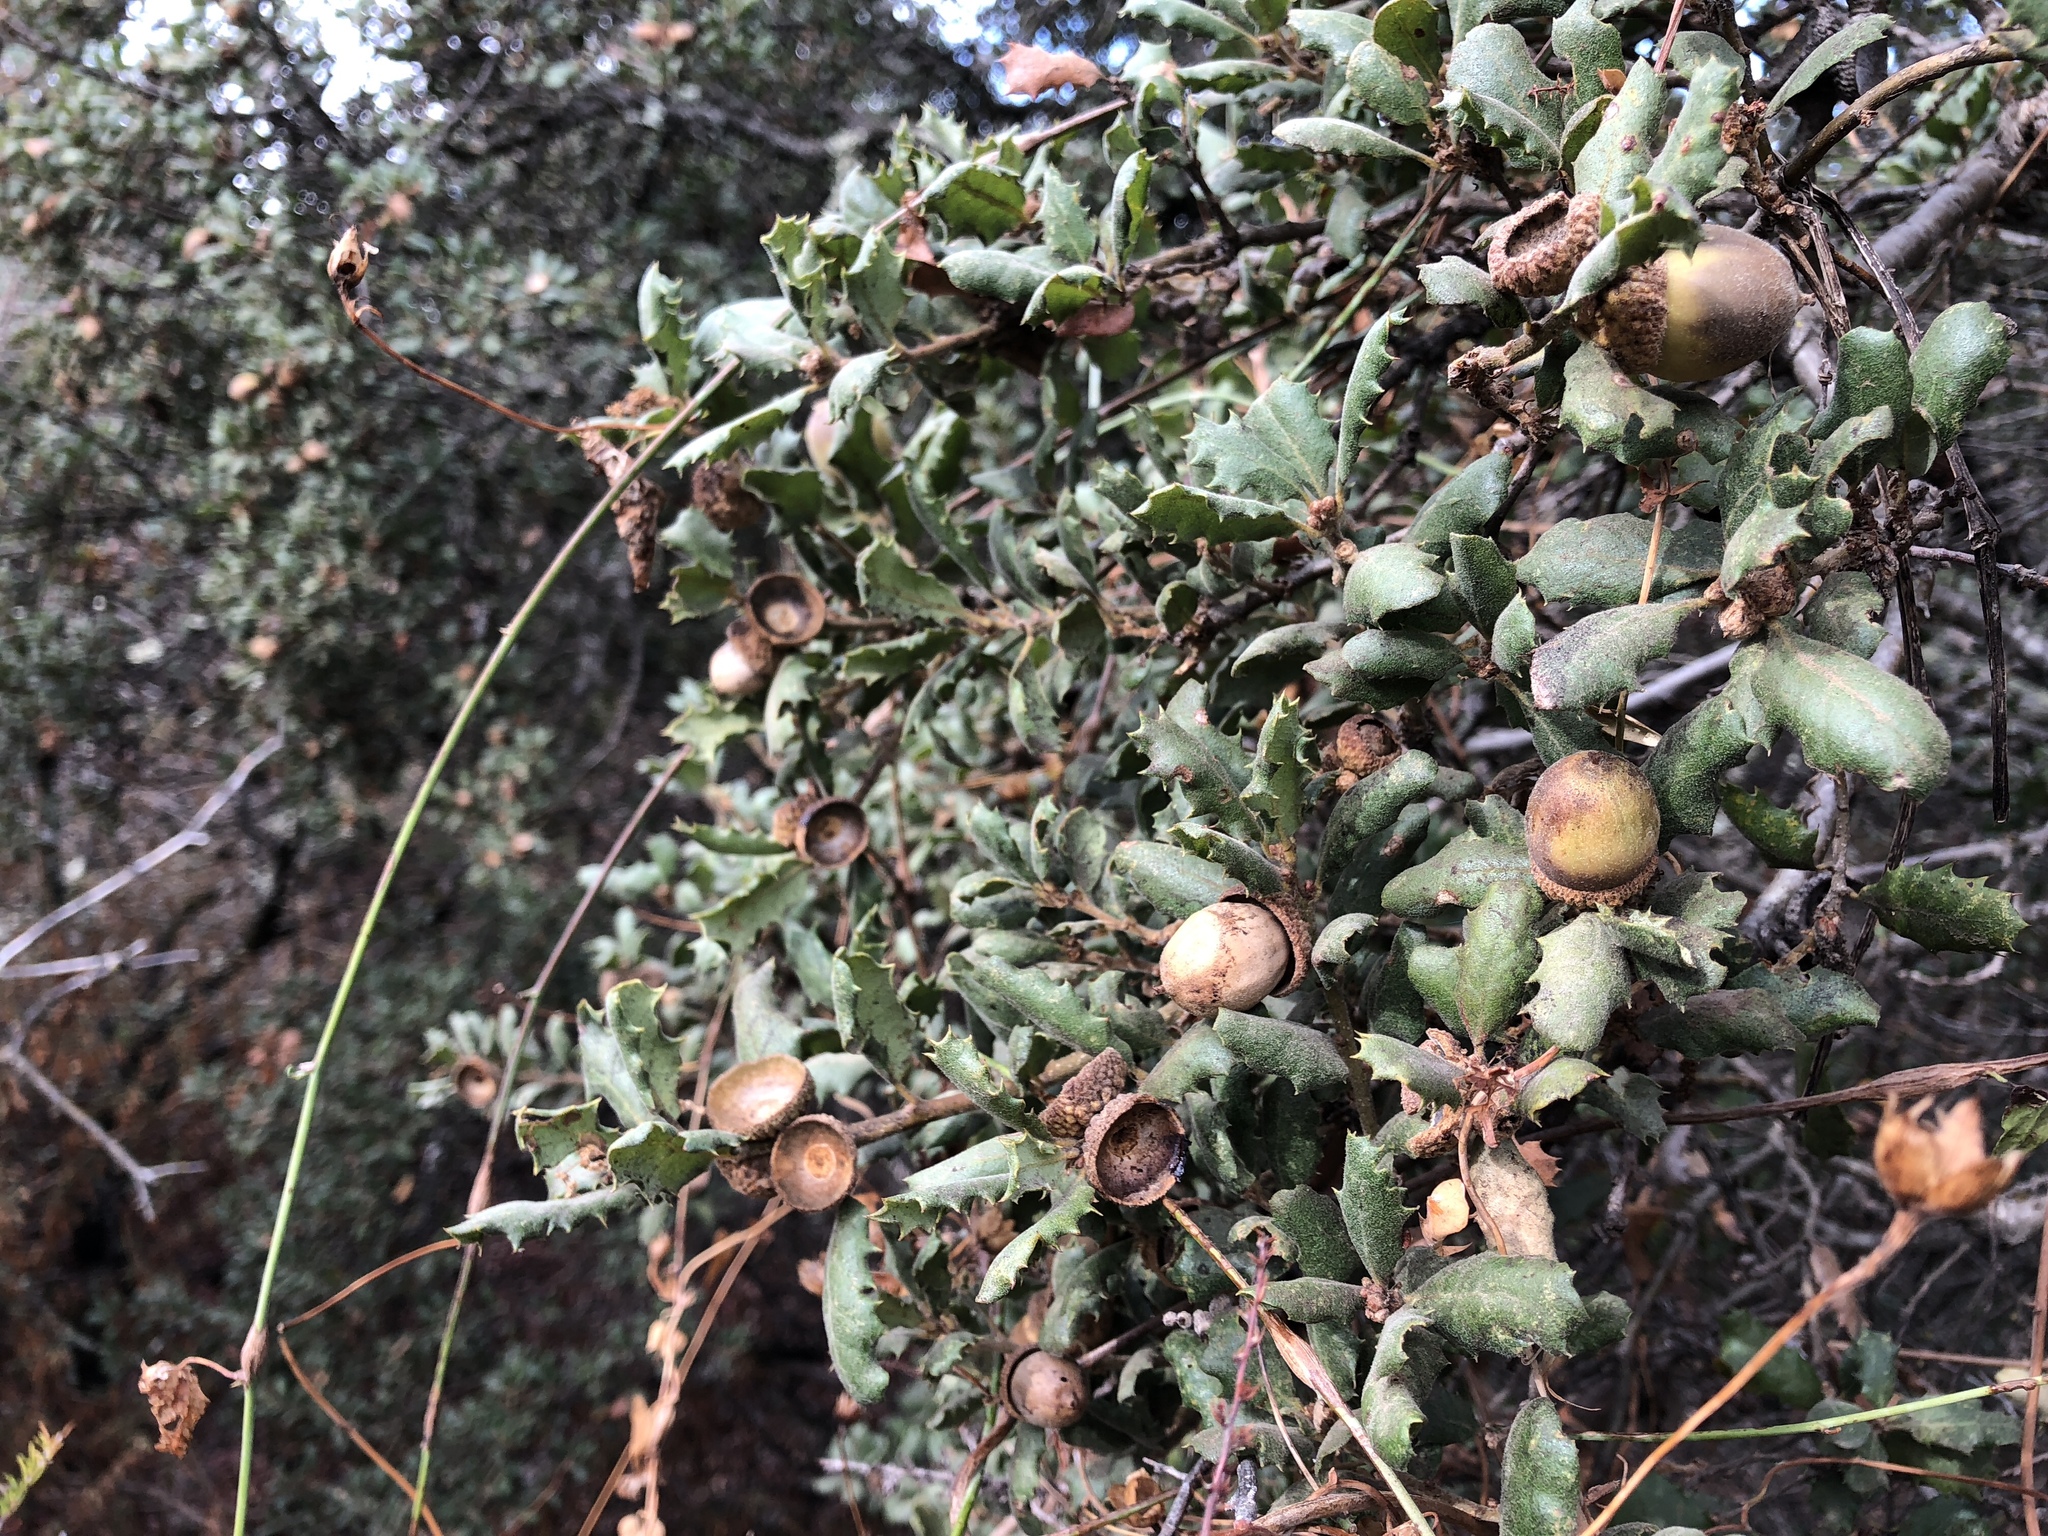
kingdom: Plantae
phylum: Tracheophyta
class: Magnoliopsida
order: Fagales
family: Fagaceae
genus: Quercus
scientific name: Quercus durata
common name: Leather oak
